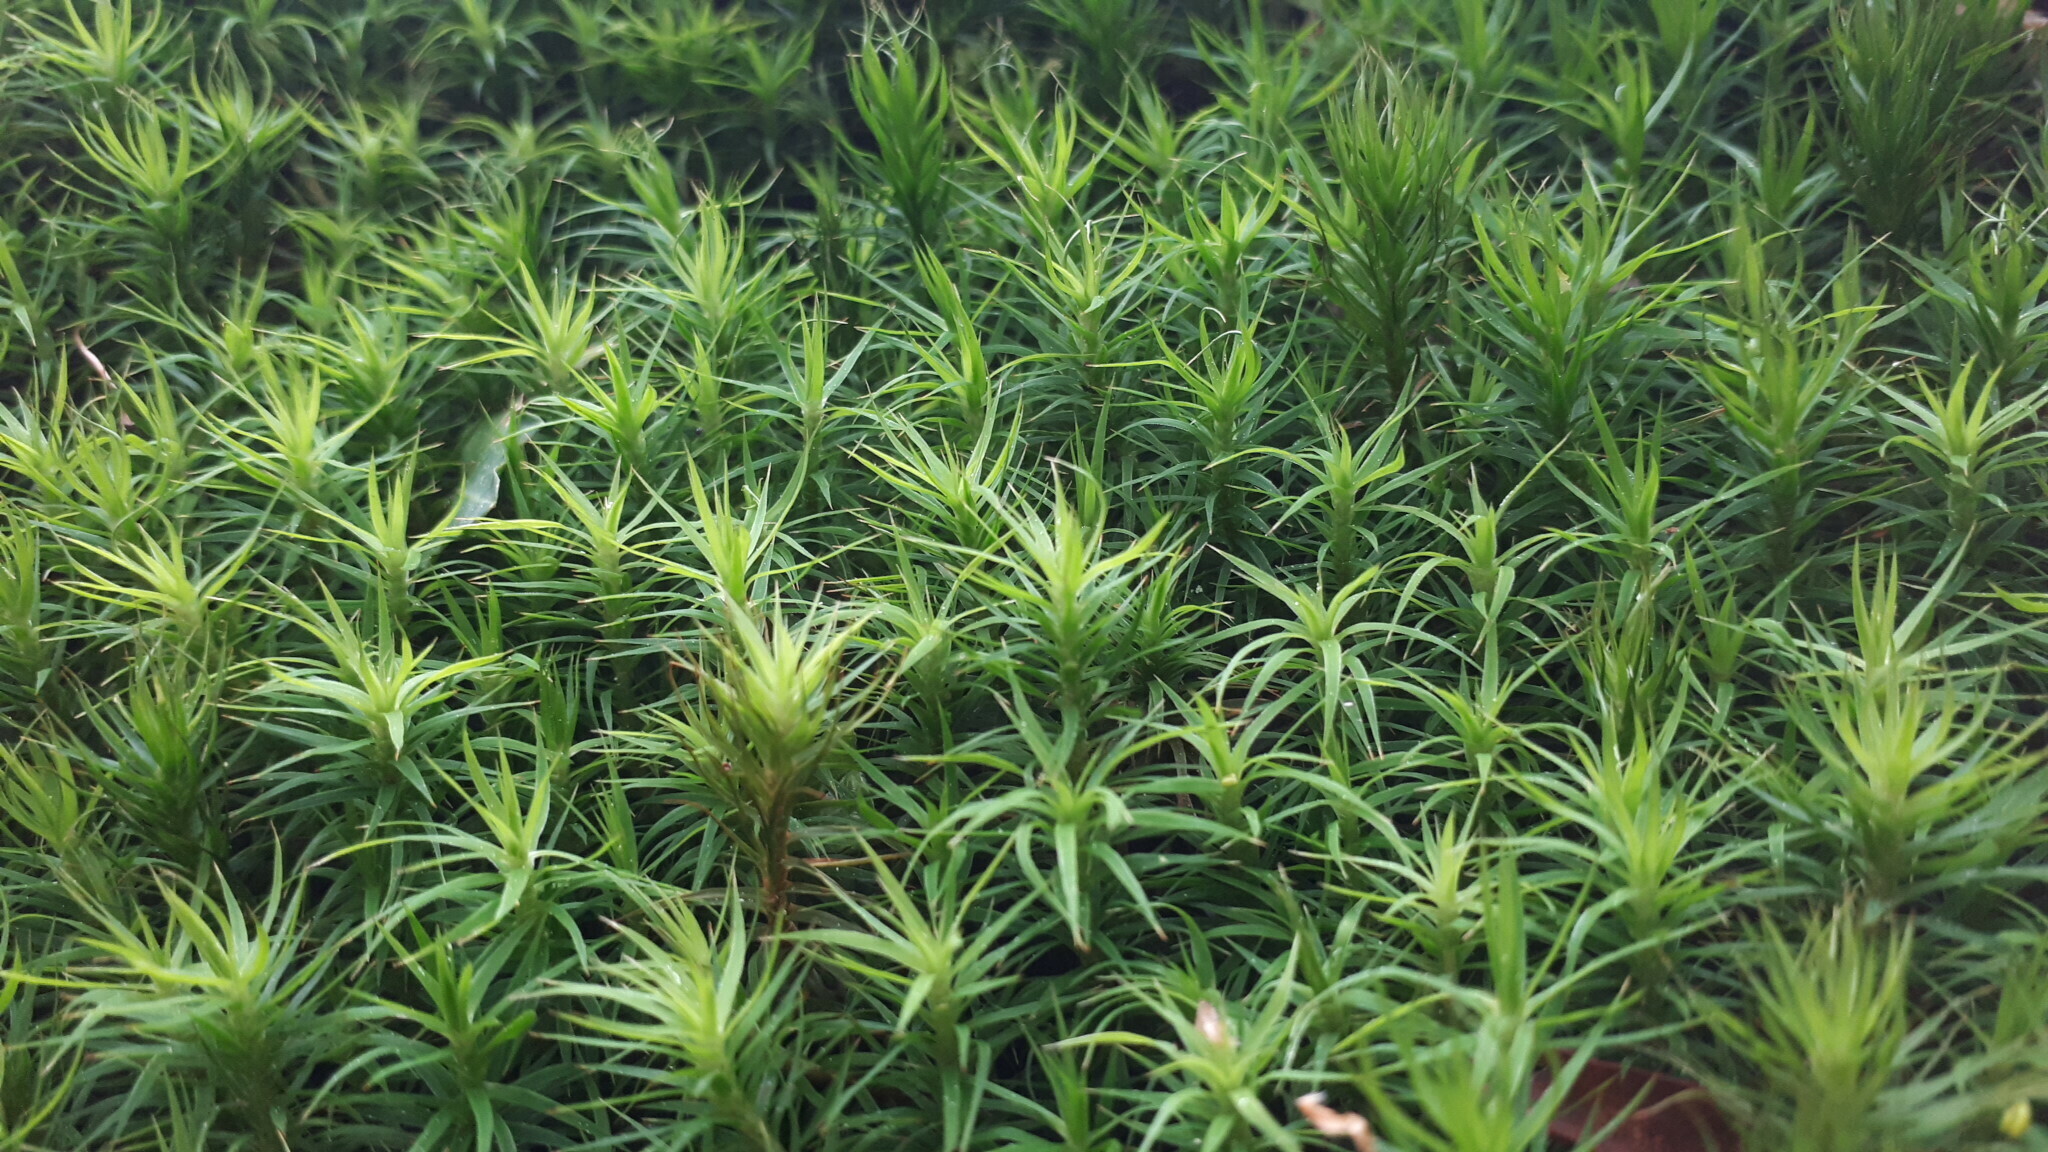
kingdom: Plantae
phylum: Bryophyta
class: Polytrichopsida
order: Polytrichales
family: Polytrichaceae
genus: Polytrichum
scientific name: Polytrichum formosum
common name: Bank haircap moss
